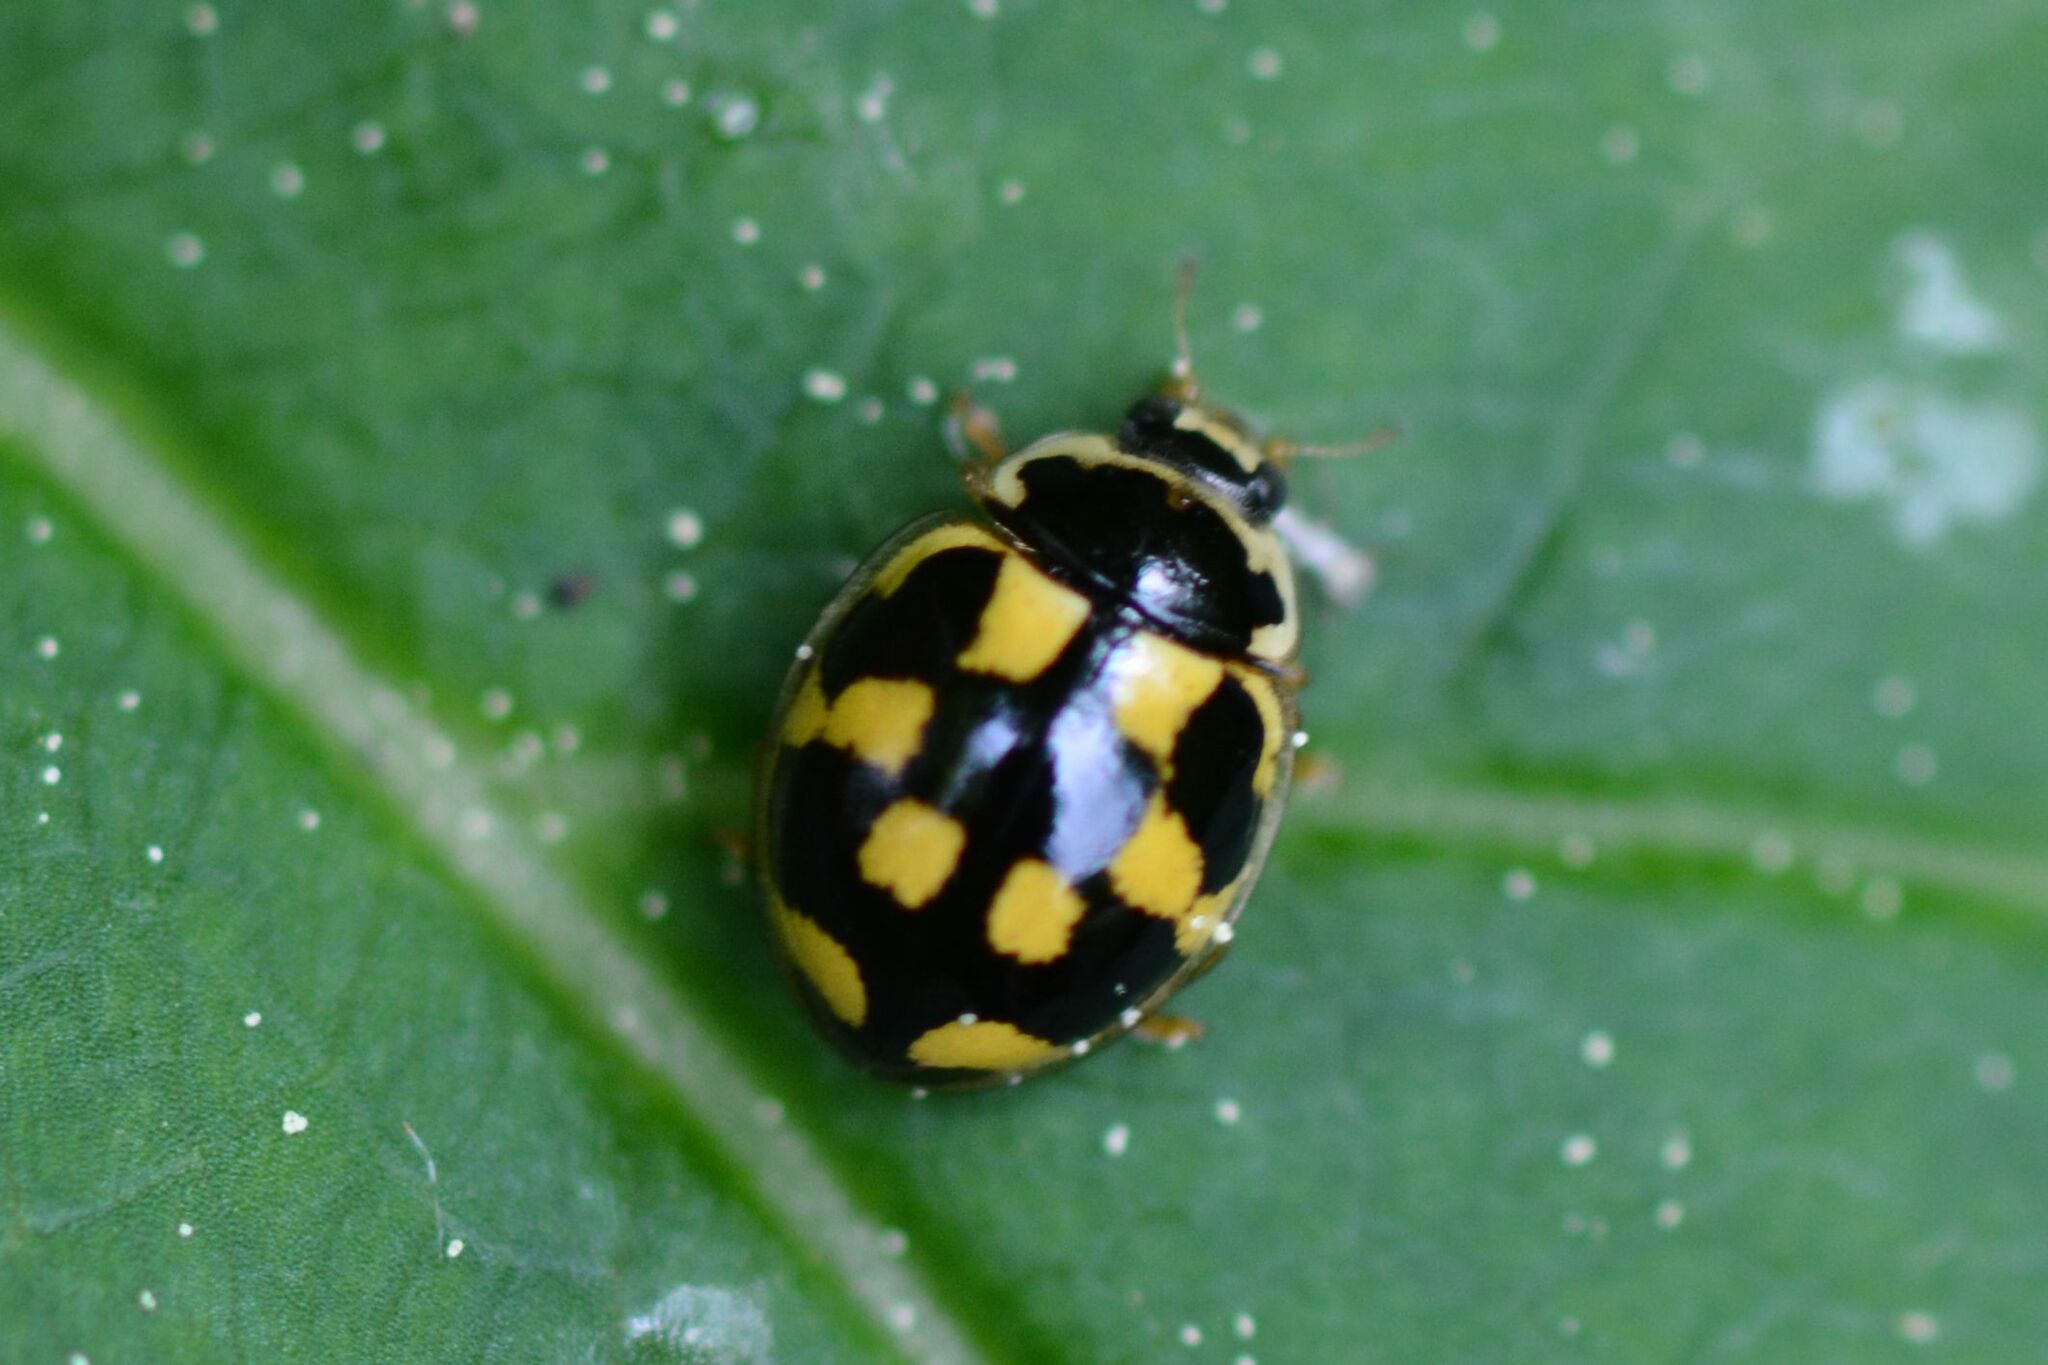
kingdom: Animalia
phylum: Arthropoda
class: Insecta
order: Coleoptera
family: Coccinellidae
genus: Propylaea
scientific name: Propylaea quatuordecimpunctata
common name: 14-spotted ladybird beetle
